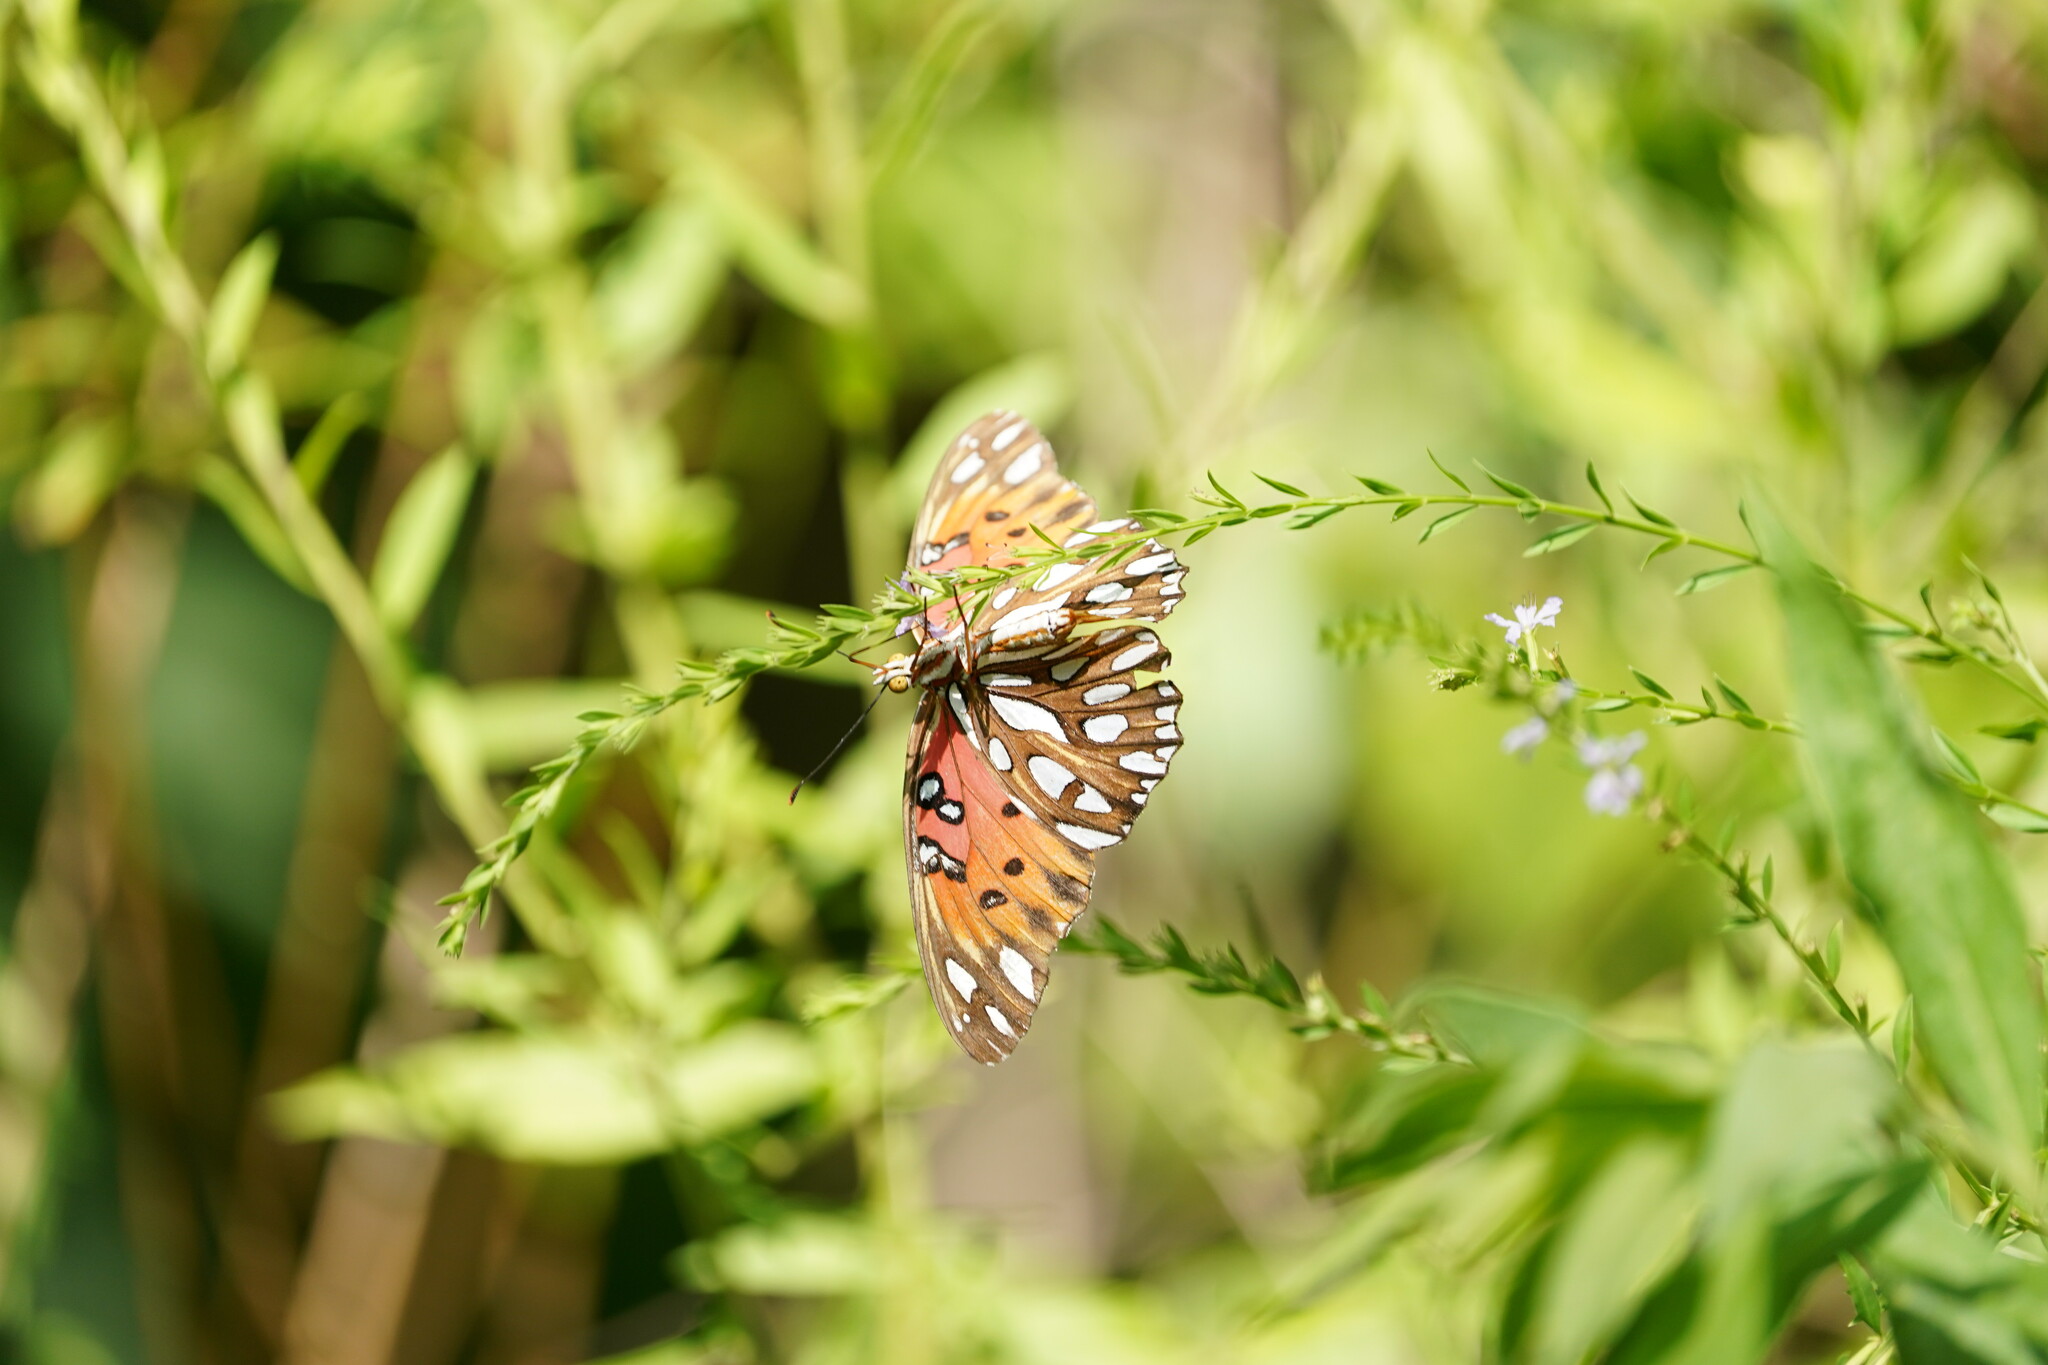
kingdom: Animalia
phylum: Arthropoda
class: Insecta
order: Lepidoptera
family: Nymphalidae
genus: Dione
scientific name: Dione vanillae
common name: Gulf fritillary
